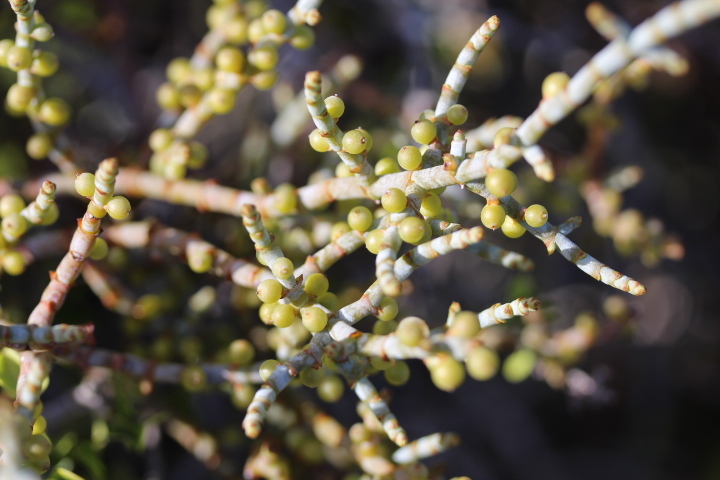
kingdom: Plantae
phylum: Tracheophyta
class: Magnoliopsida
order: Santalales
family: Viscaceae
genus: Viscum
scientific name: Viscum capense
